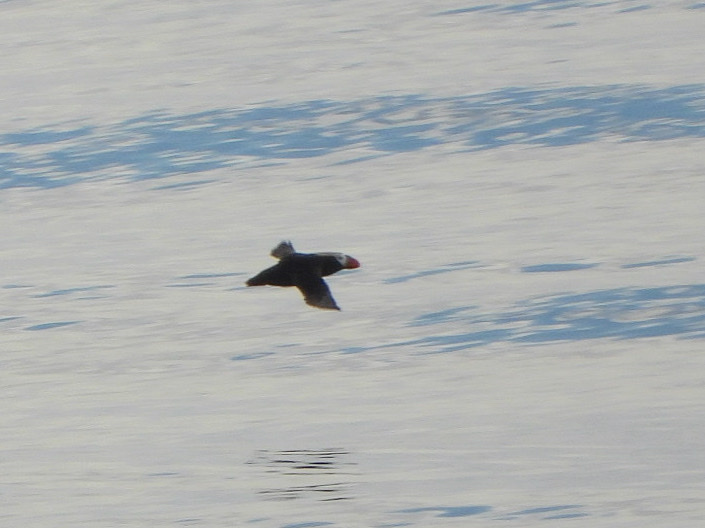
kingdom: Animalia
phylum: Chordata
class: Aves
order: Charadriiformes
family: Alcidae
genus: Fratercula
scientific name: Fratercula cirrhata
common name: Tufted puffin
